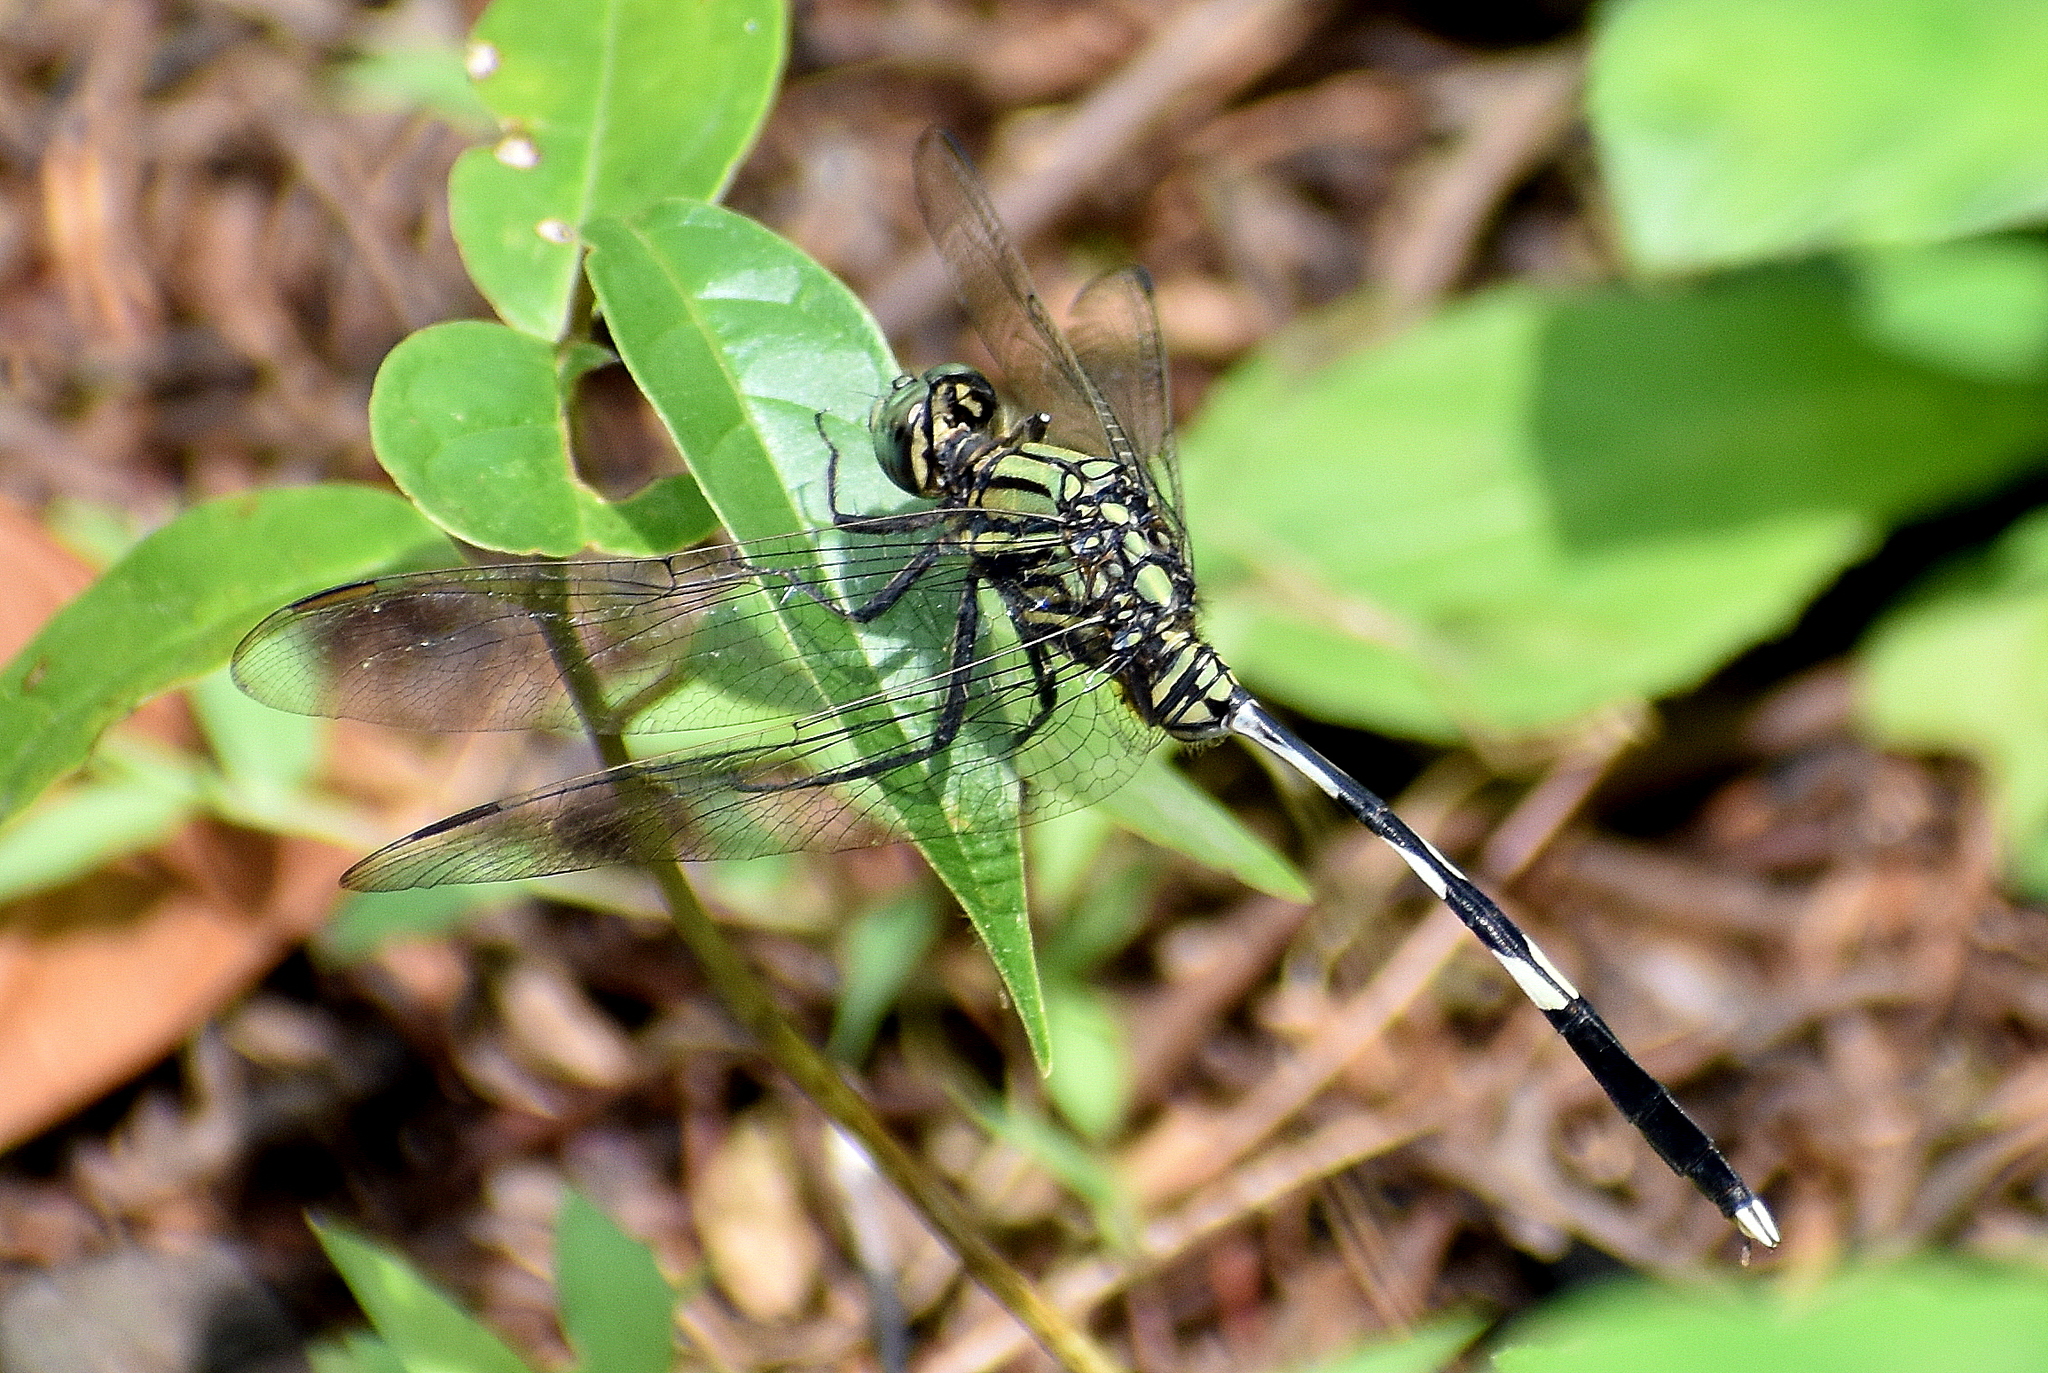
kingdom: Animalia
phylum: Arthropoda
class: Insecta
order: Odonata
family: Libellulidae
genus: Orthetrum
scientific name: Orthetrum sabina
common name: Slender skimmer
